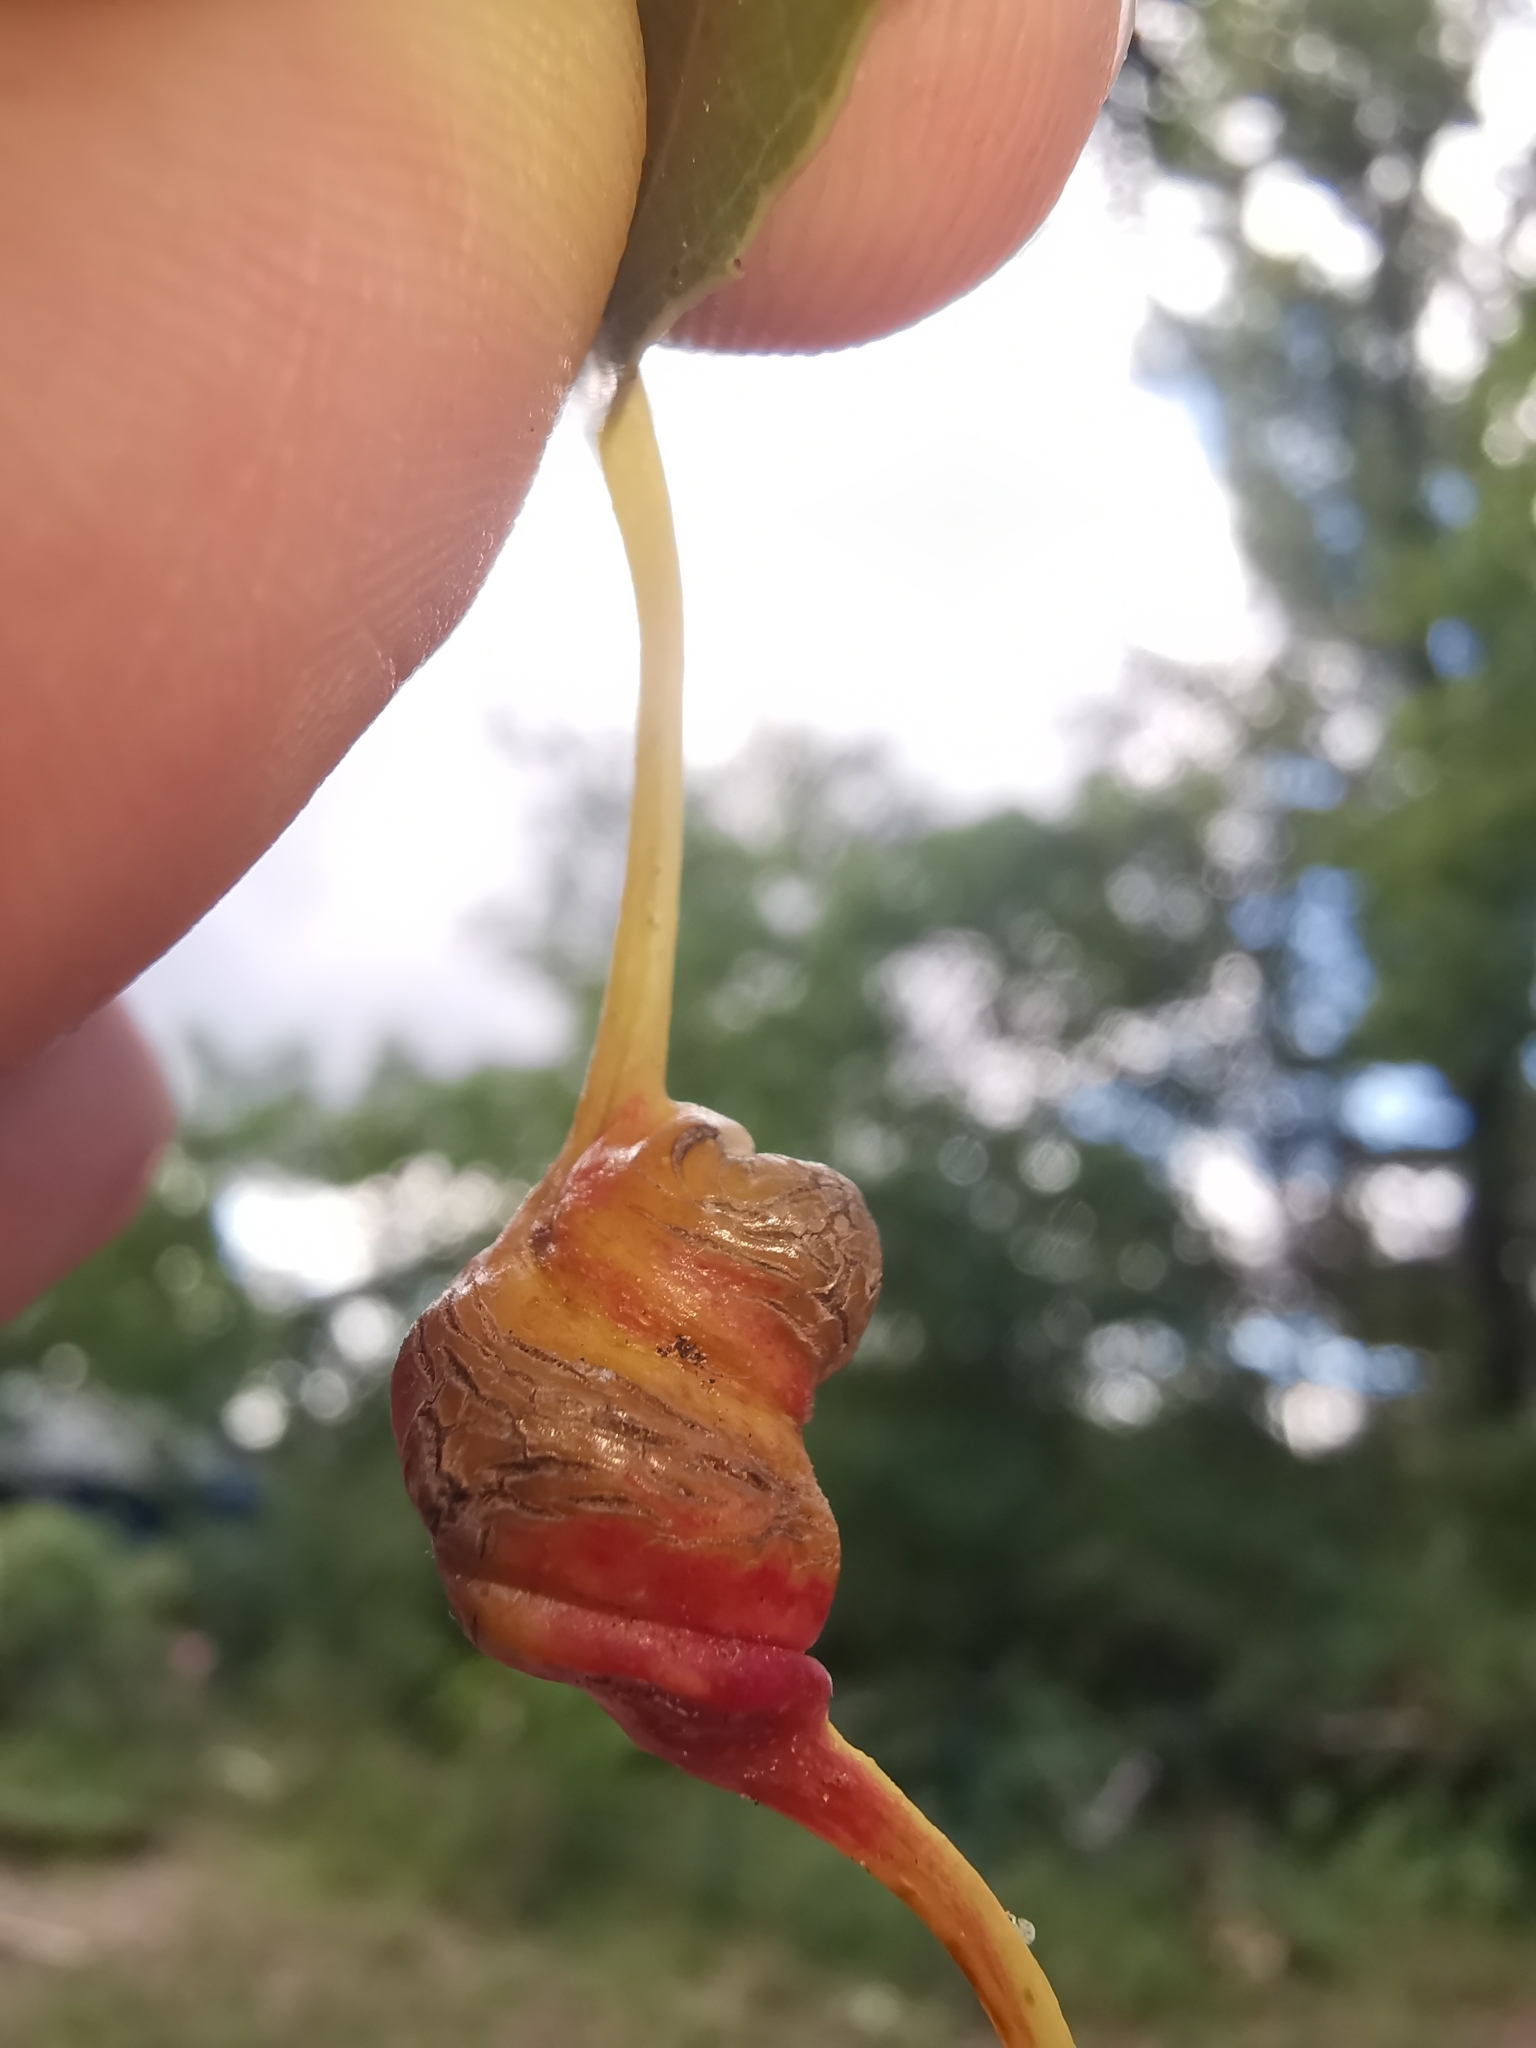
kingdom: Animalia
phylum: Arthropoda
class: Insecta
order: Hemiptera
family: Aphididae
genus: Pemphigus
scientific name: Pemphigus spyrothecae
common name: Aphid
